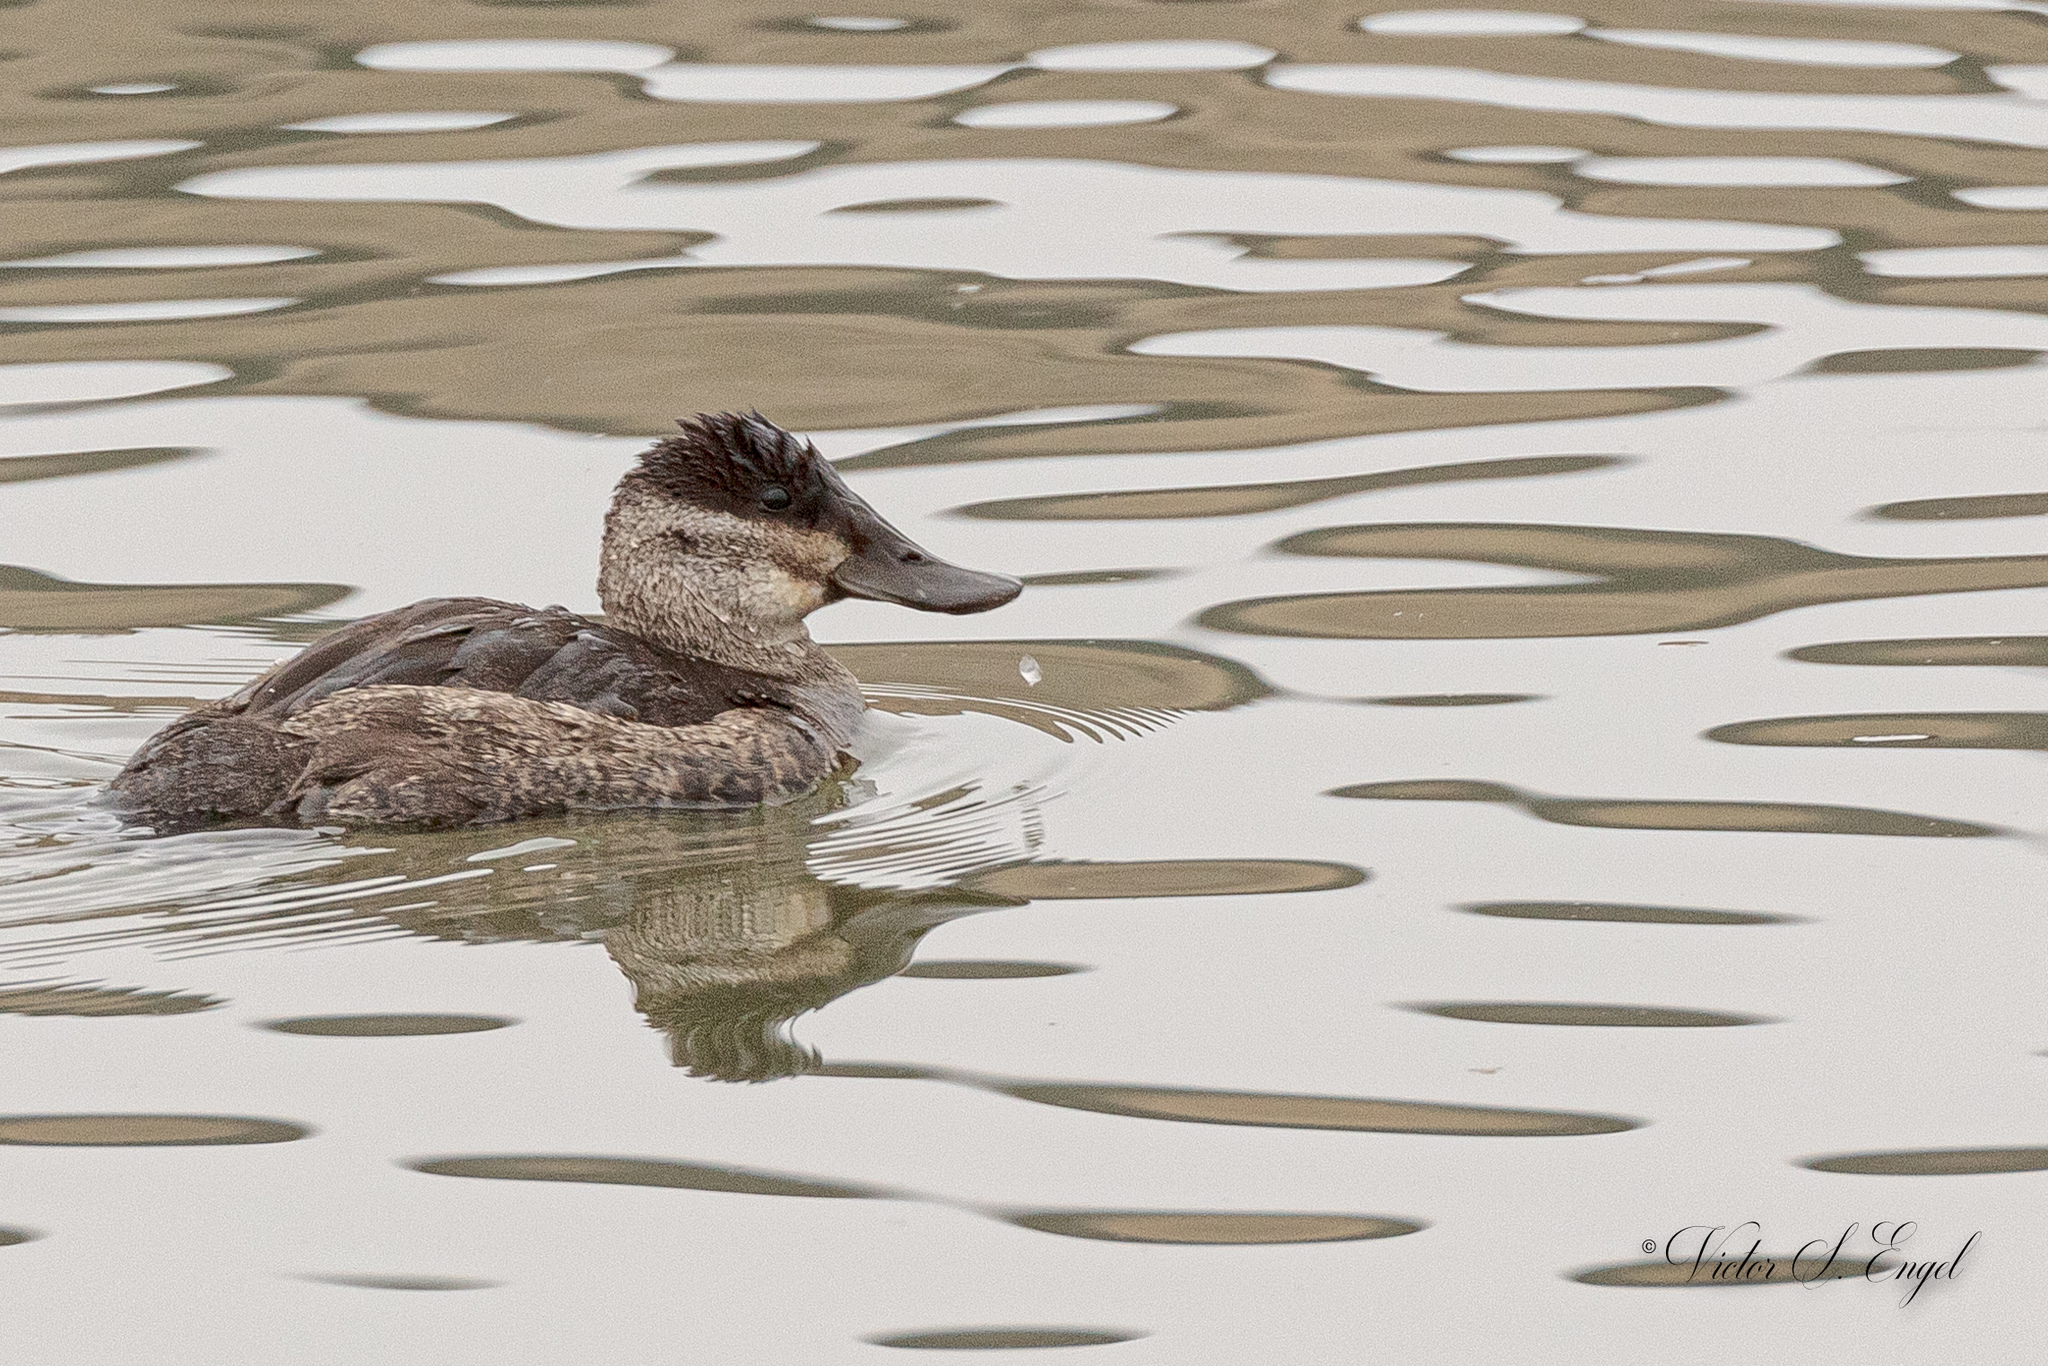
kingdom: Animalia
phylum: Chordata
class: Aves
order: Anseriformes
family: Anatidae
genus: Oxyura
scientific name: Oxyura jamaicensis
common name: Ruddy duck
